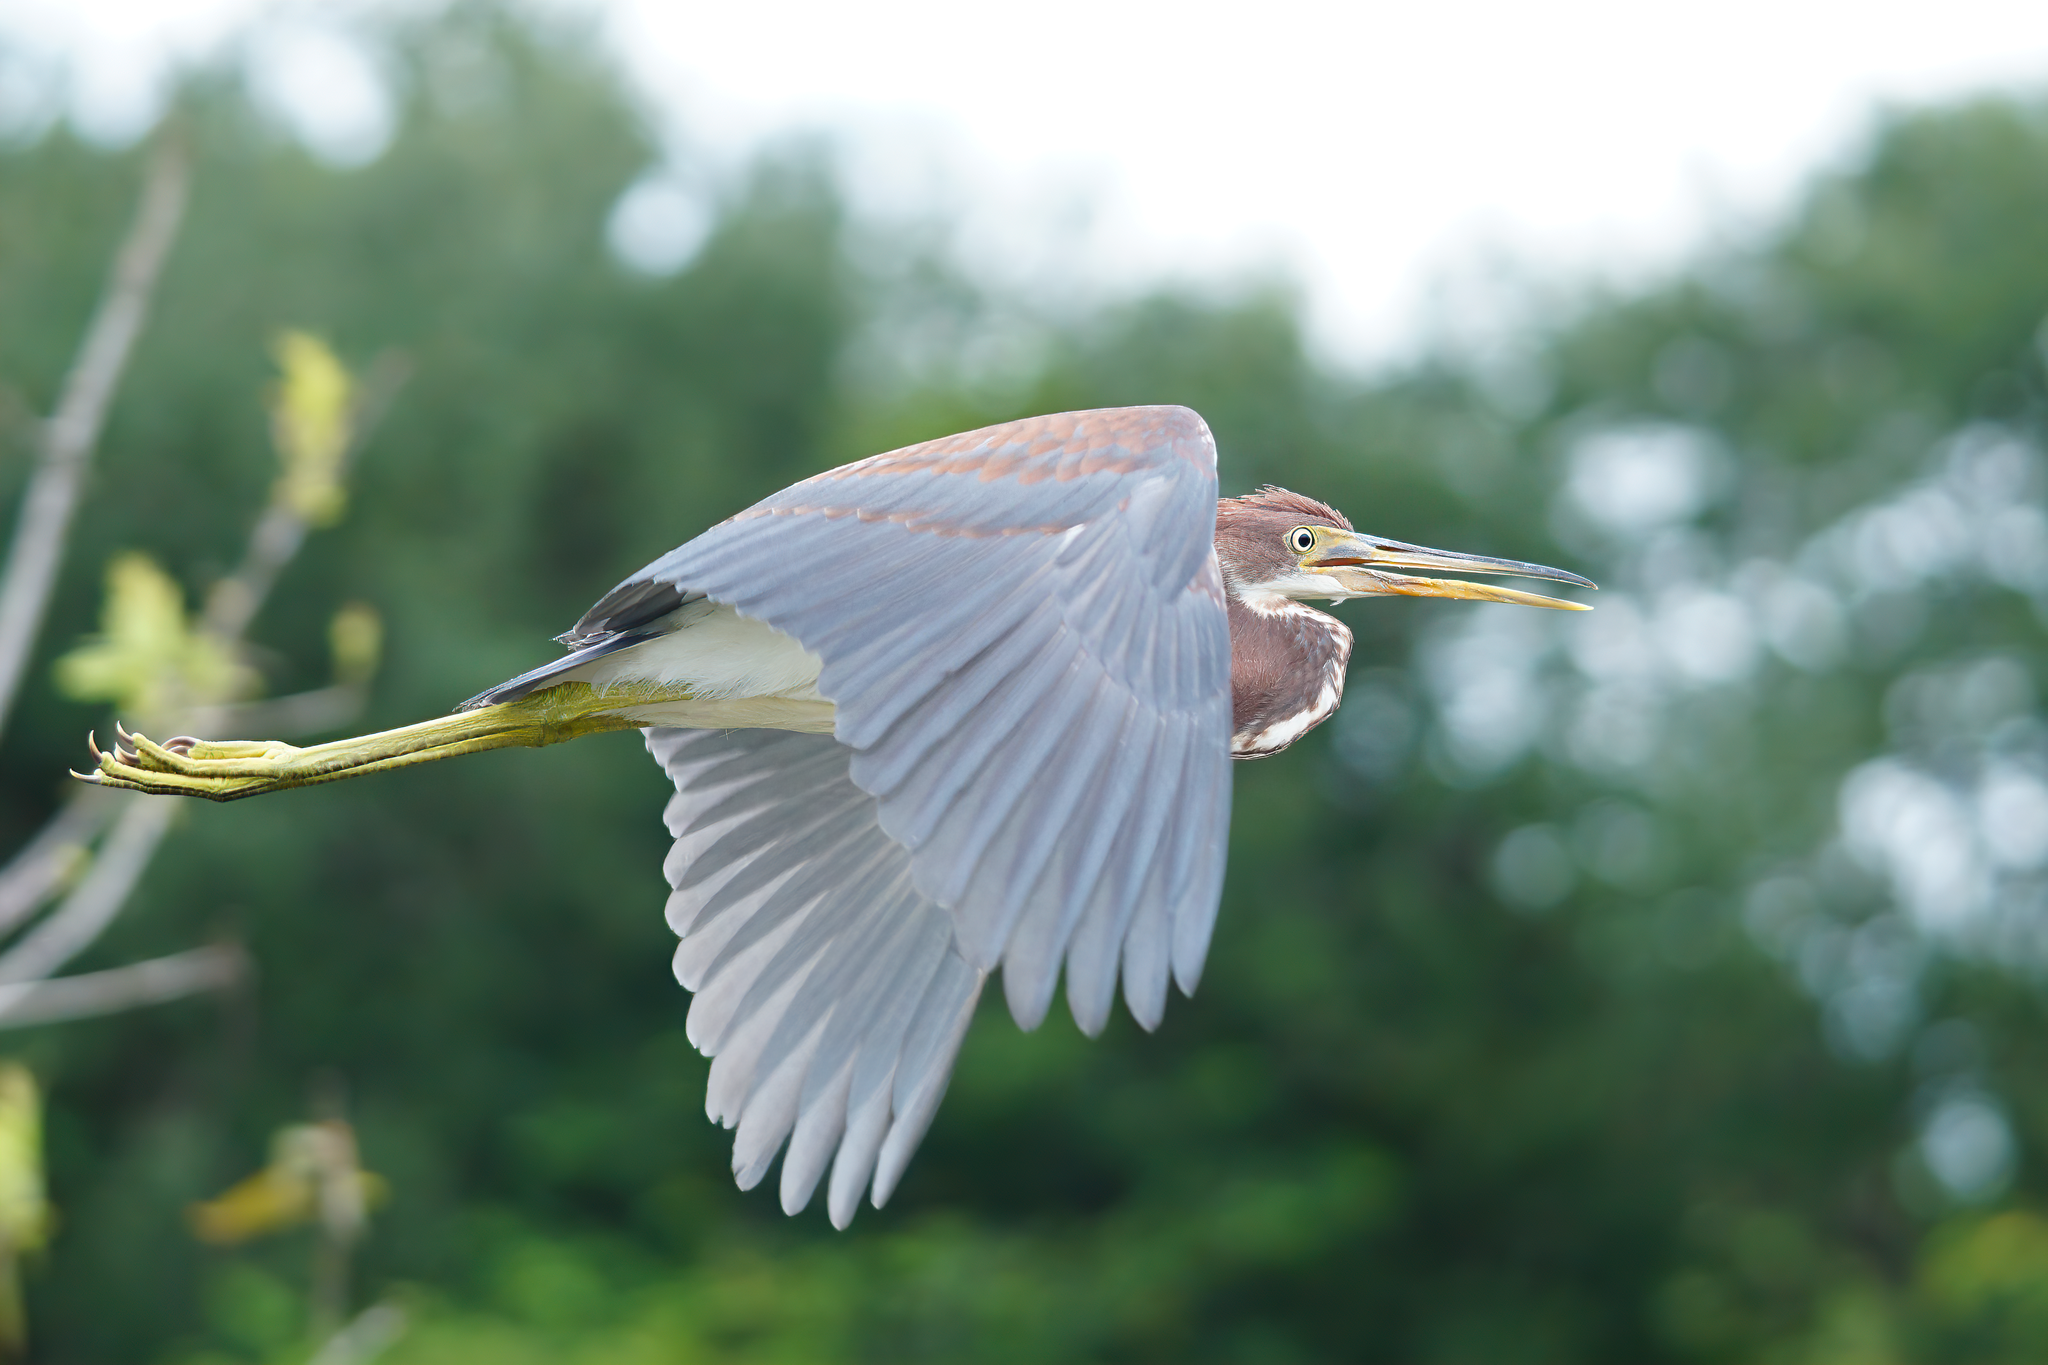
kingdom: Animalia
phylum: Chordata
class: Aves
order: Pelecaniformes
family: Ardeidae
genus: Egretta
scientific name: Egretta tricolor
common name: Tricolored heron
